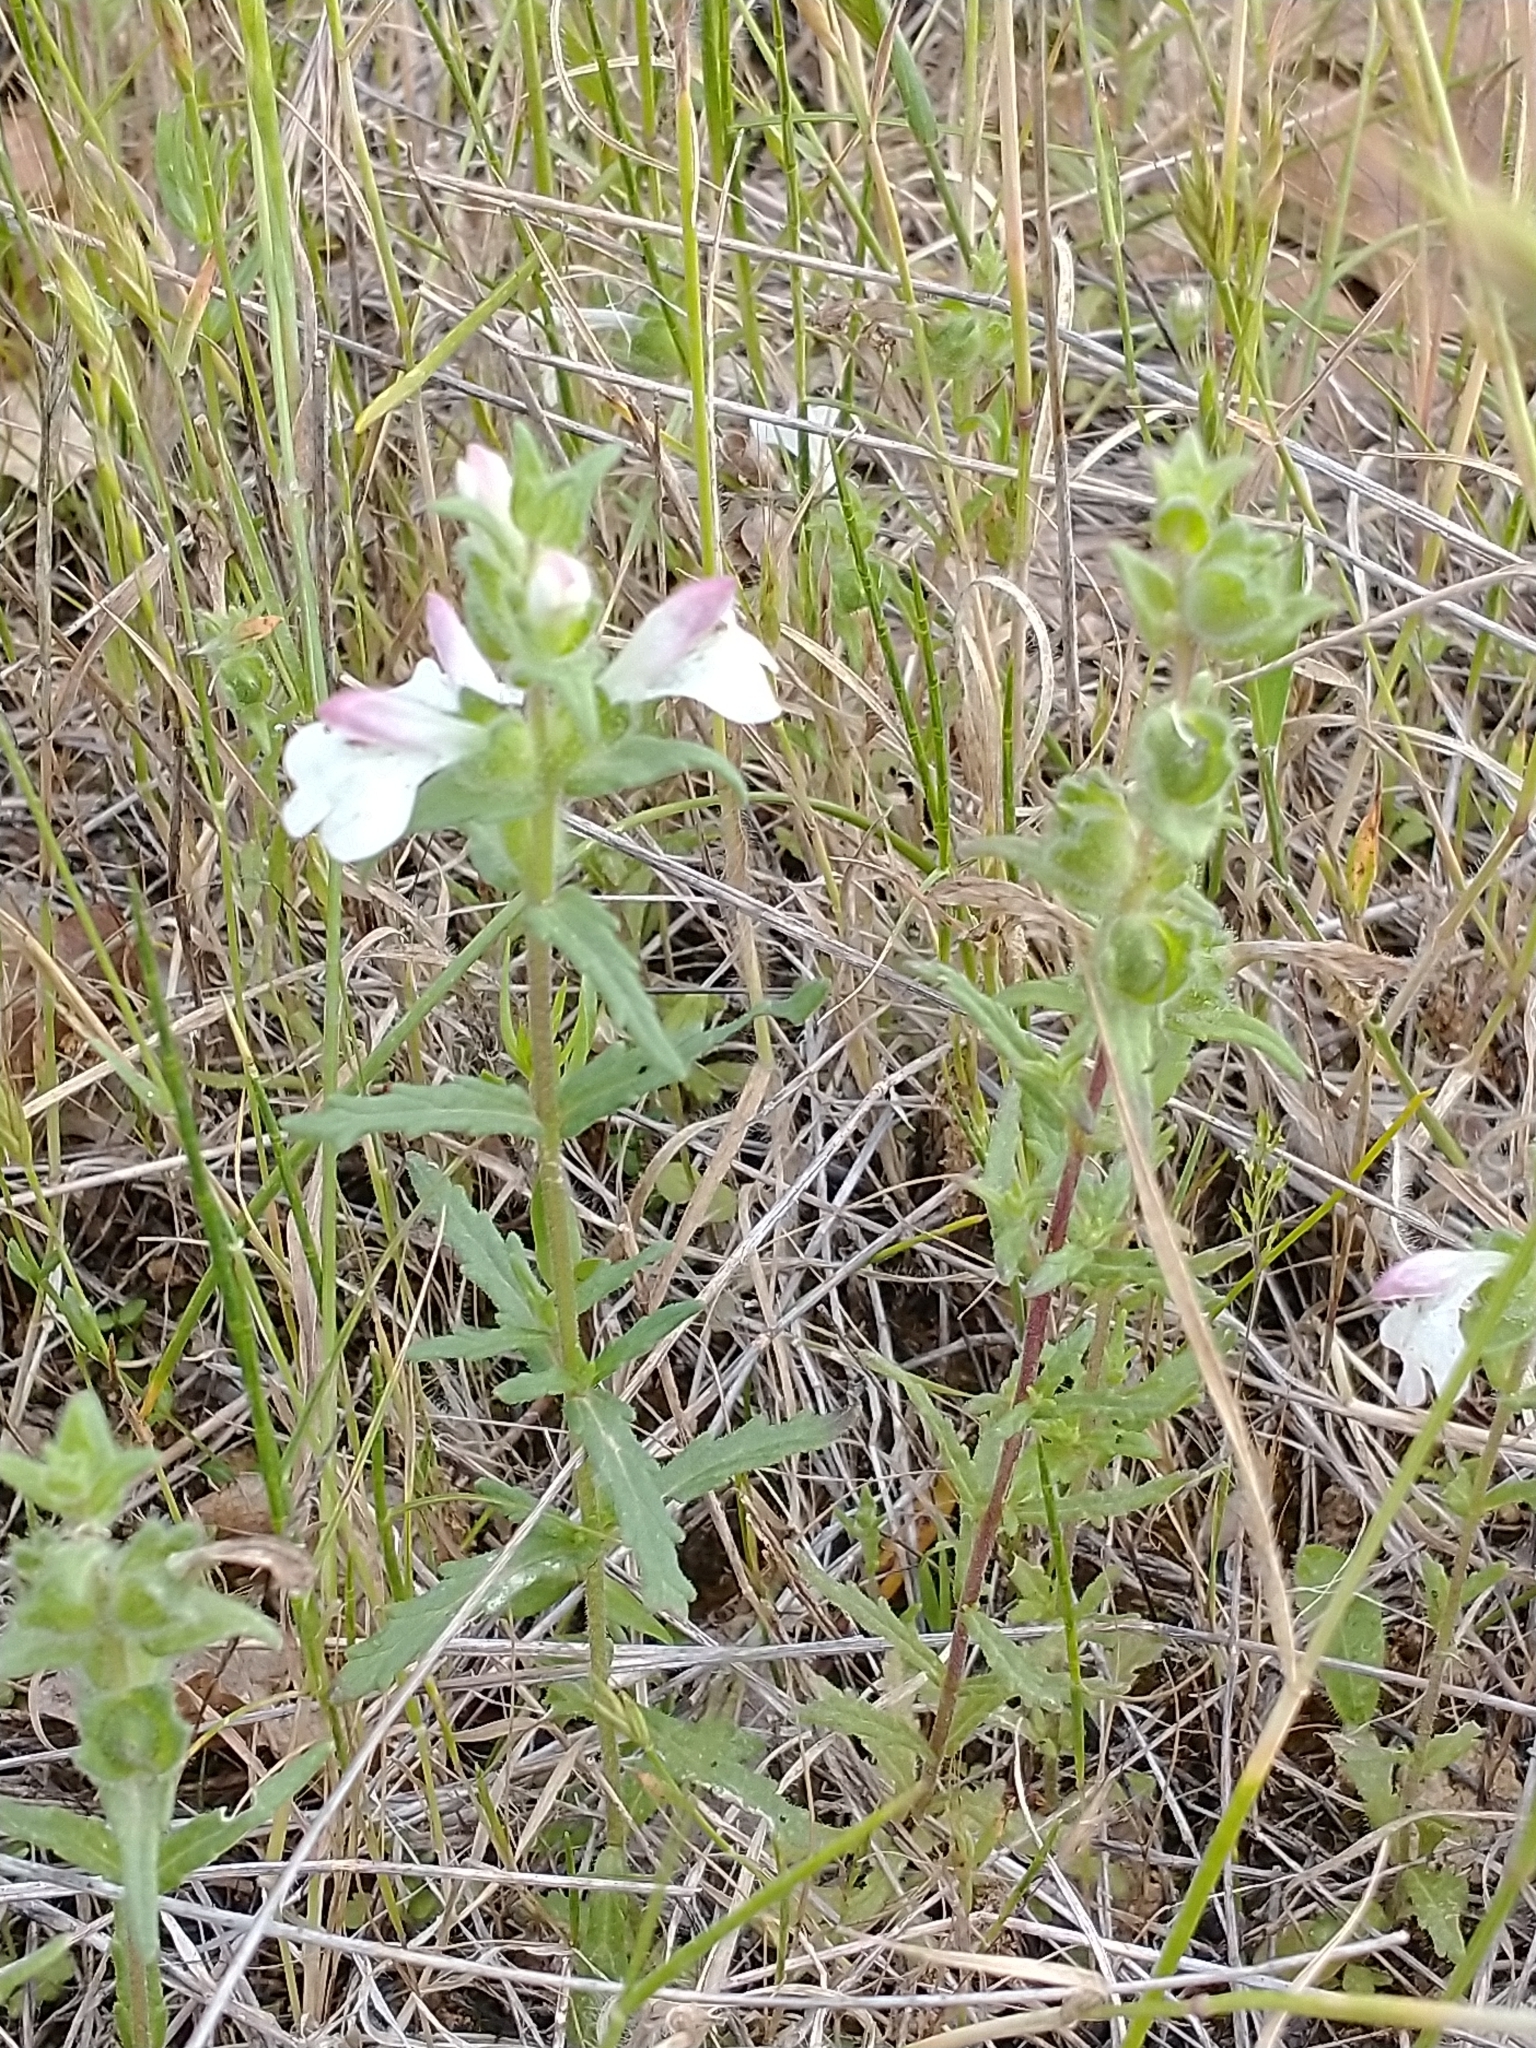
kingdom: Plantae
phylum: Tracheophyta
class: Magnoliopsida
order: Lamiales
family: Orobanchaceae
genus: Bellardia
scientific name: Bellardia trixago
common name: Mediterranean lineseed
